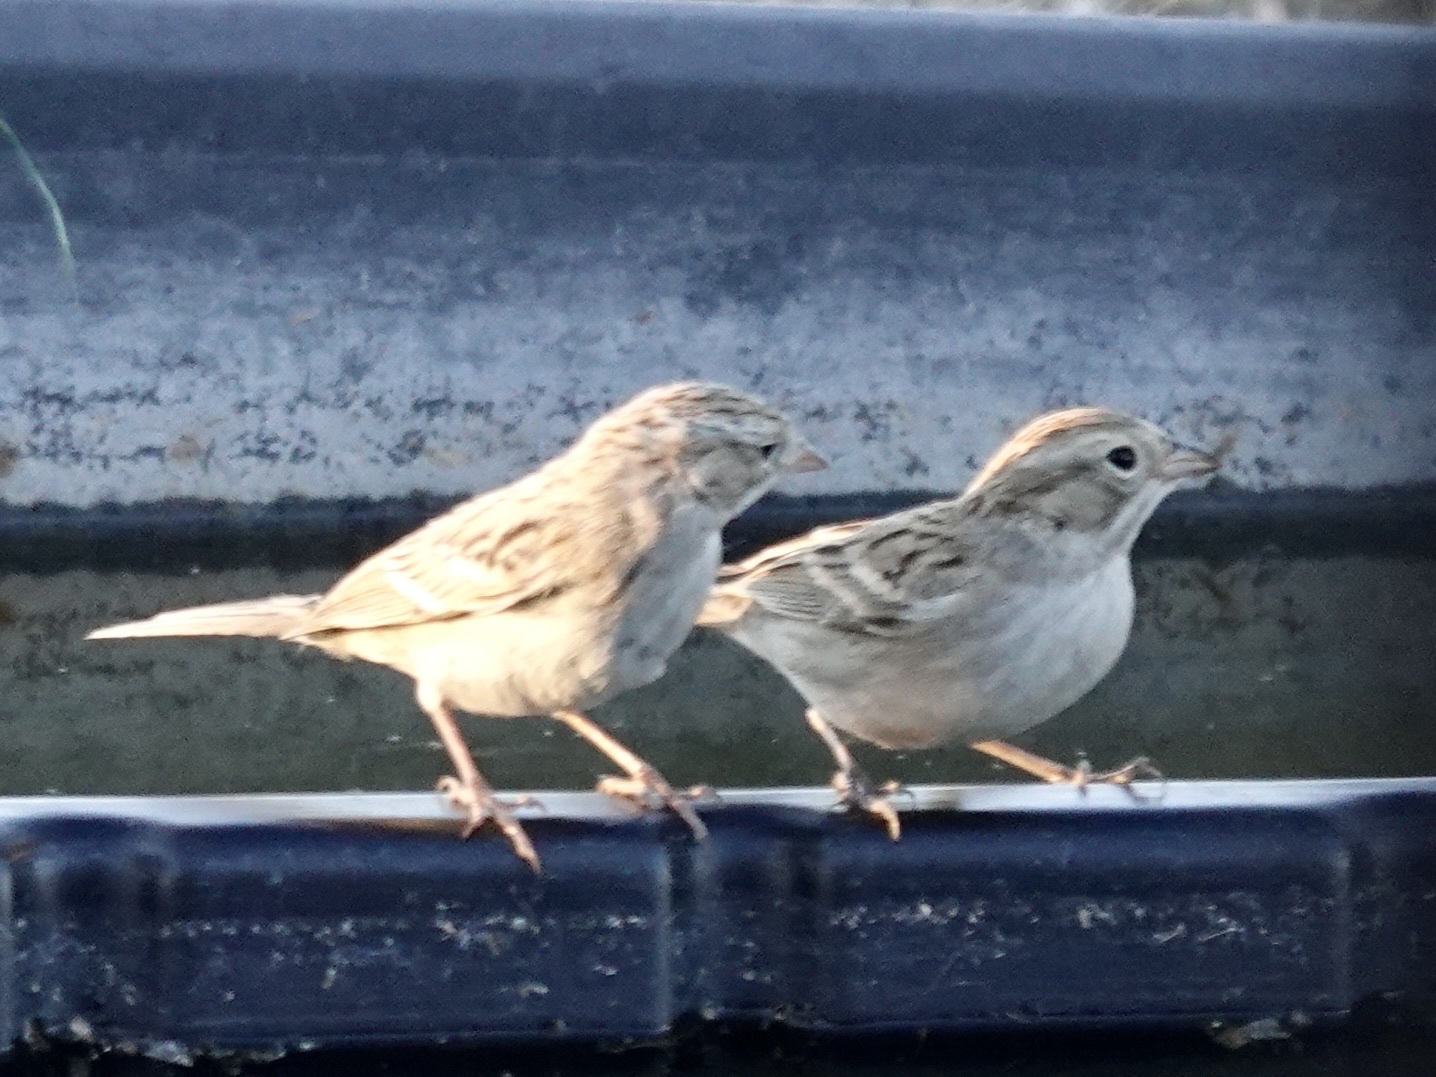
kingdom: Animalia
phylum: Chordata
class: Aves
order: Passeriformes
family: Passerellidae
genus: Spizella
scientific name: Spizella breweri
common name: Brewer's sparrow
